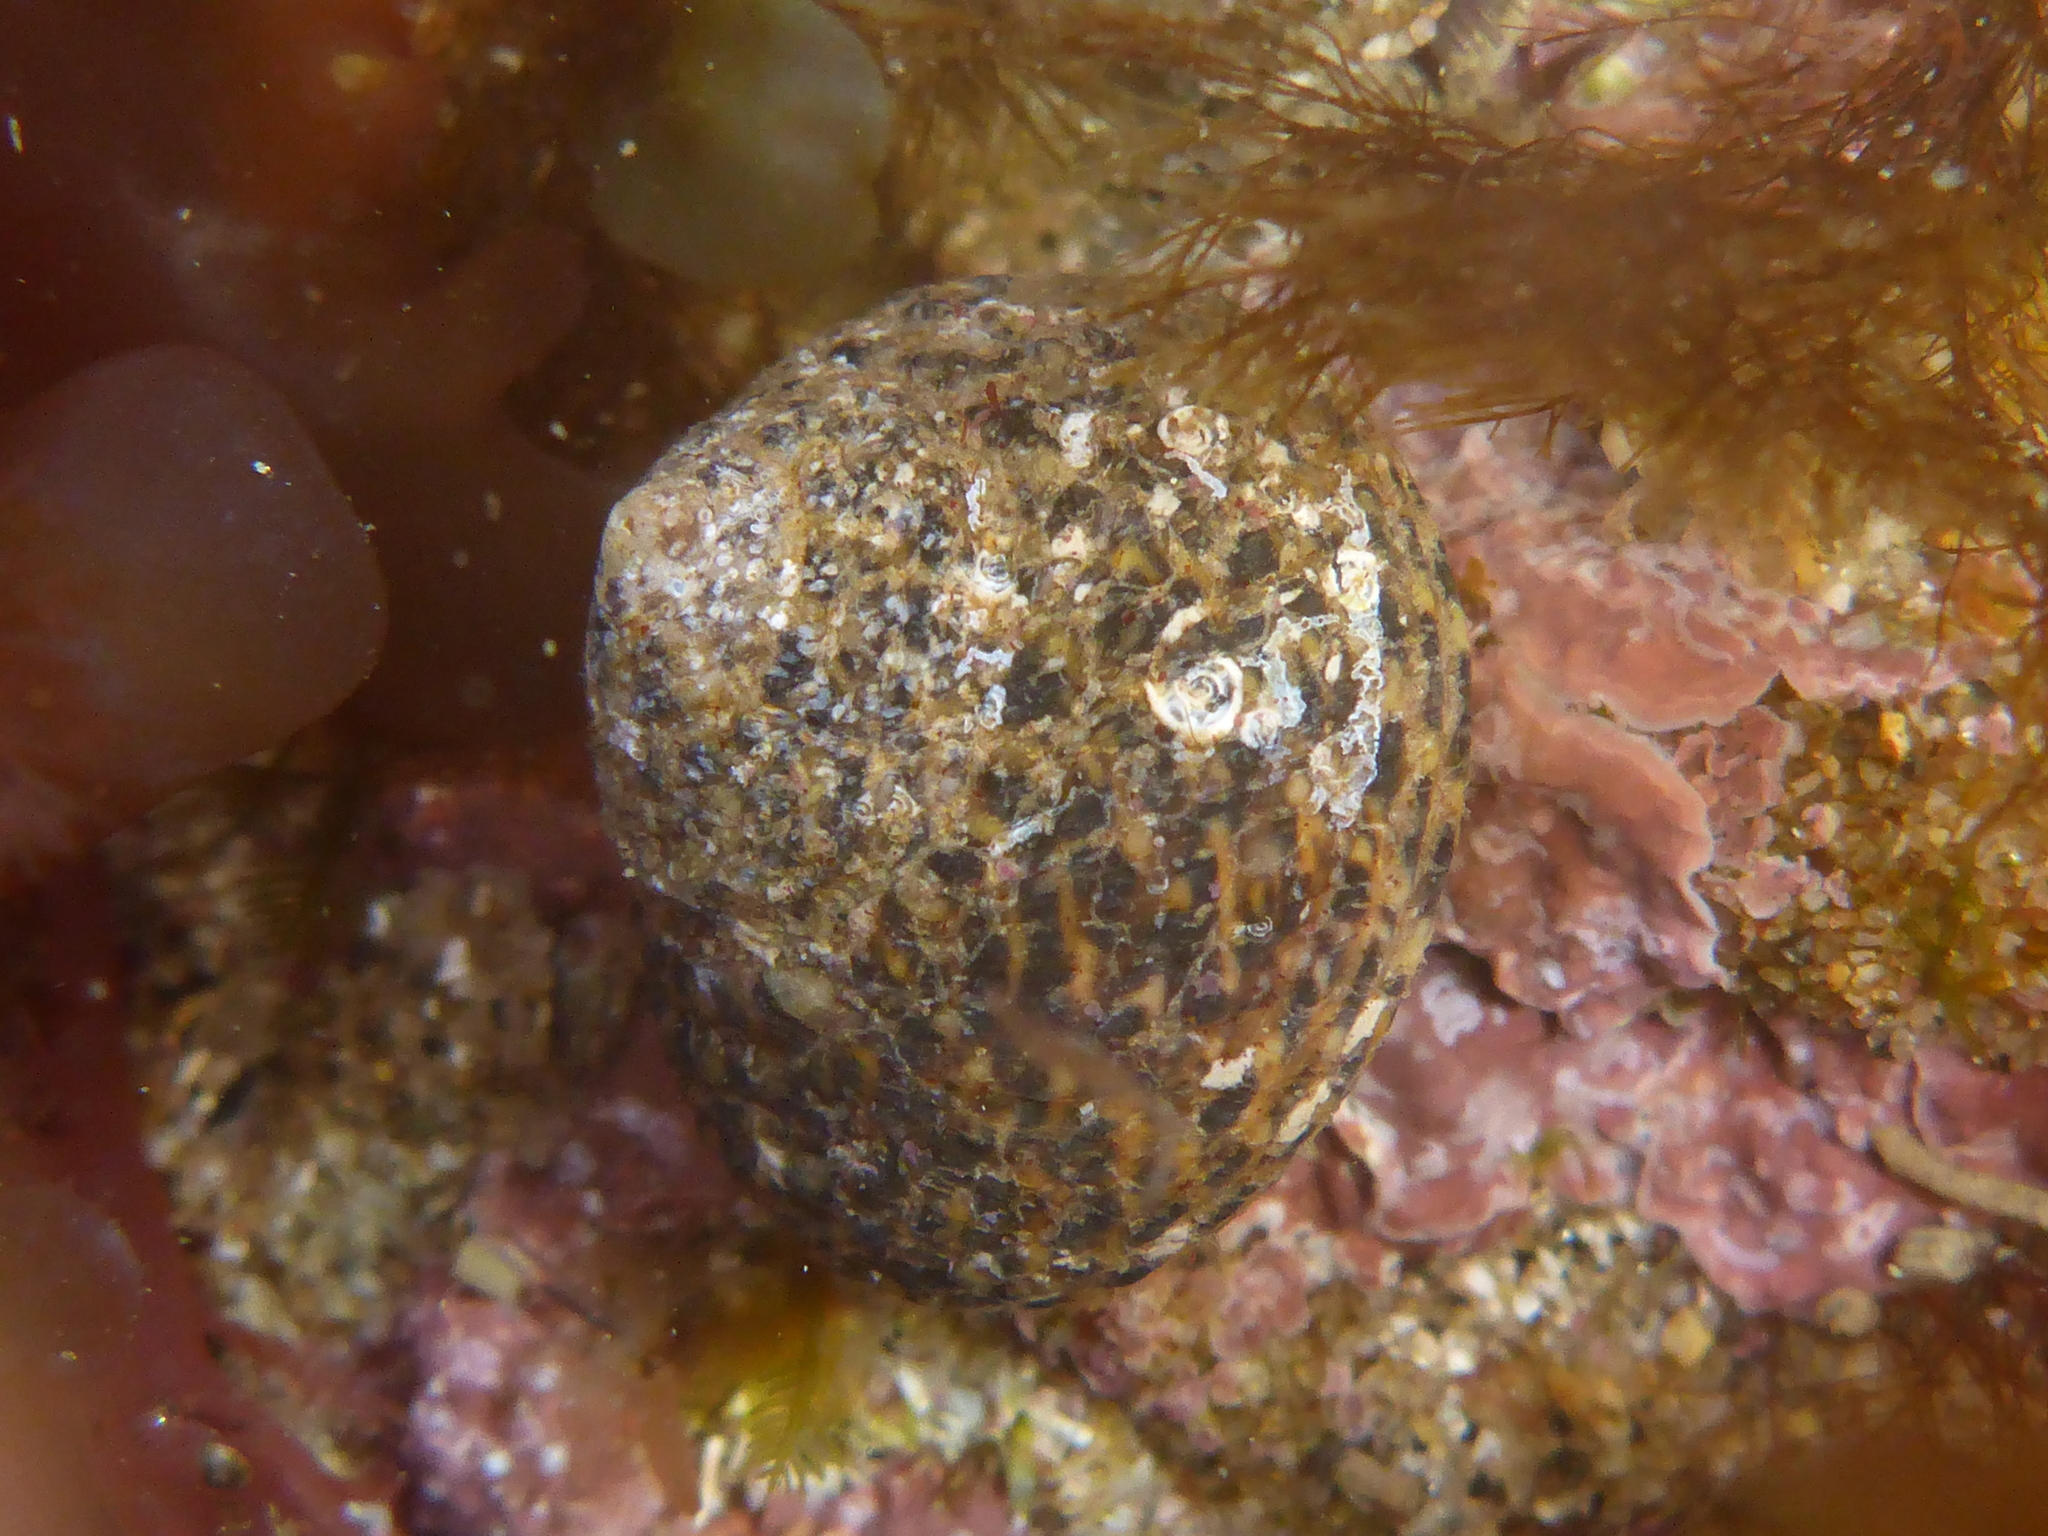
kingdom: Animalia
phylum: Mollusca
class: Gastropoda
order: Trochida
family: Tegulidae
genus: Tegula
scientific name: Tegula eiseni
